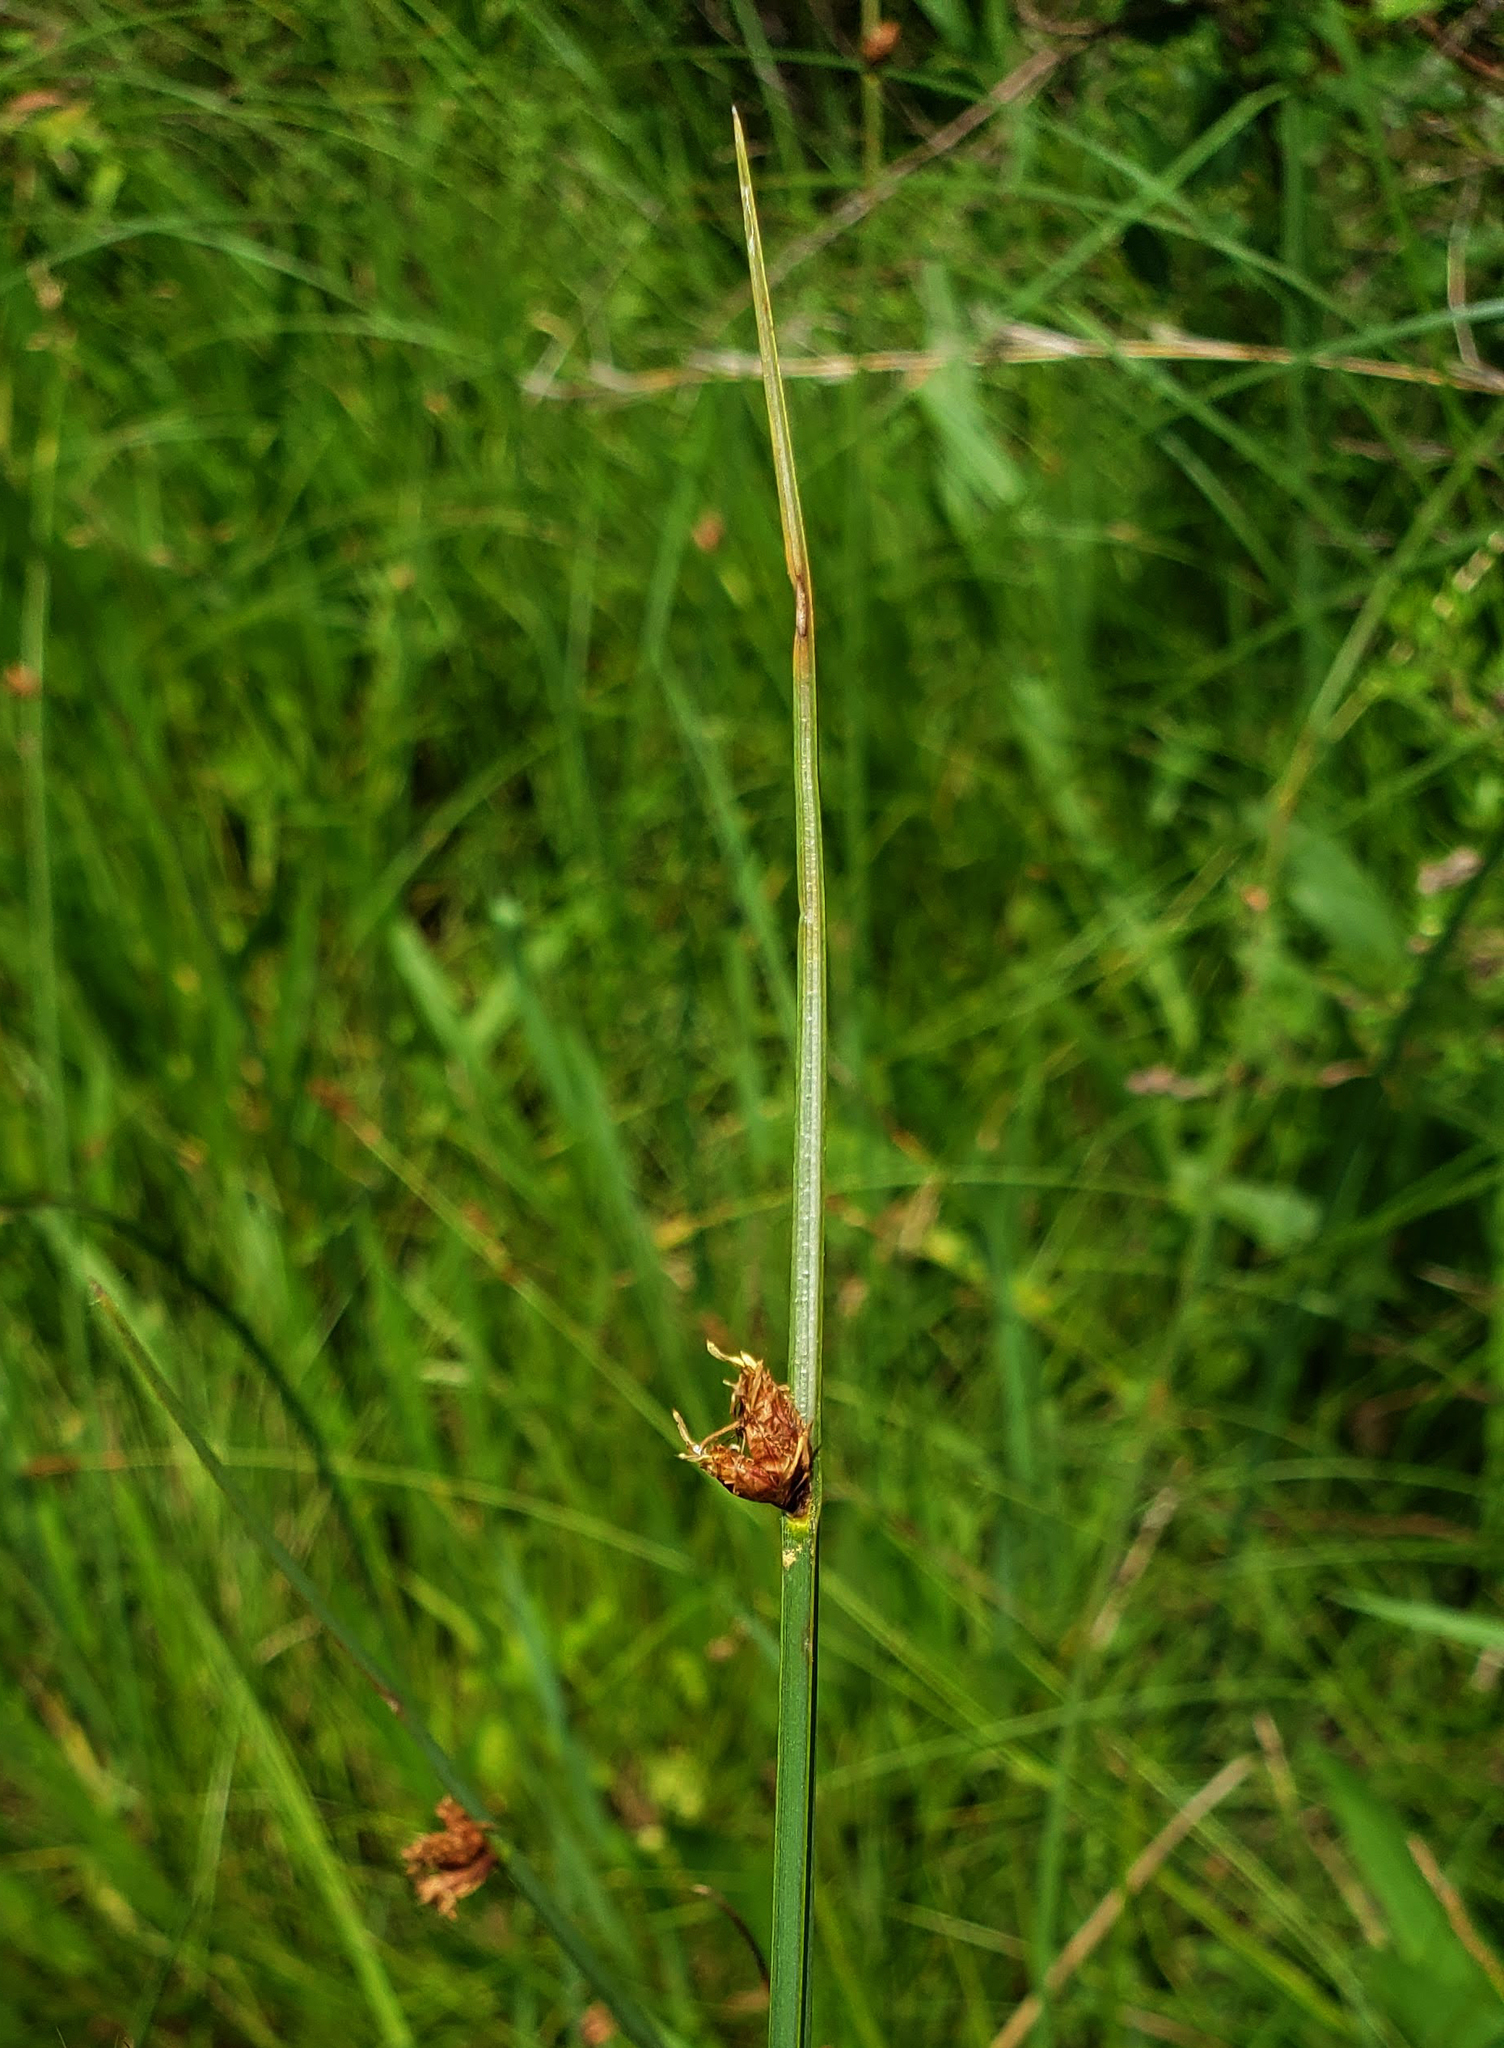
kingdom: Plantae
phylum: Tracheophyta
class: Liliopsida
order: Poales
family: Cyperaceae
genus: Schoenoplectus
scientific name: Schoenoplectus pungens
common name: Sharp club-rush
